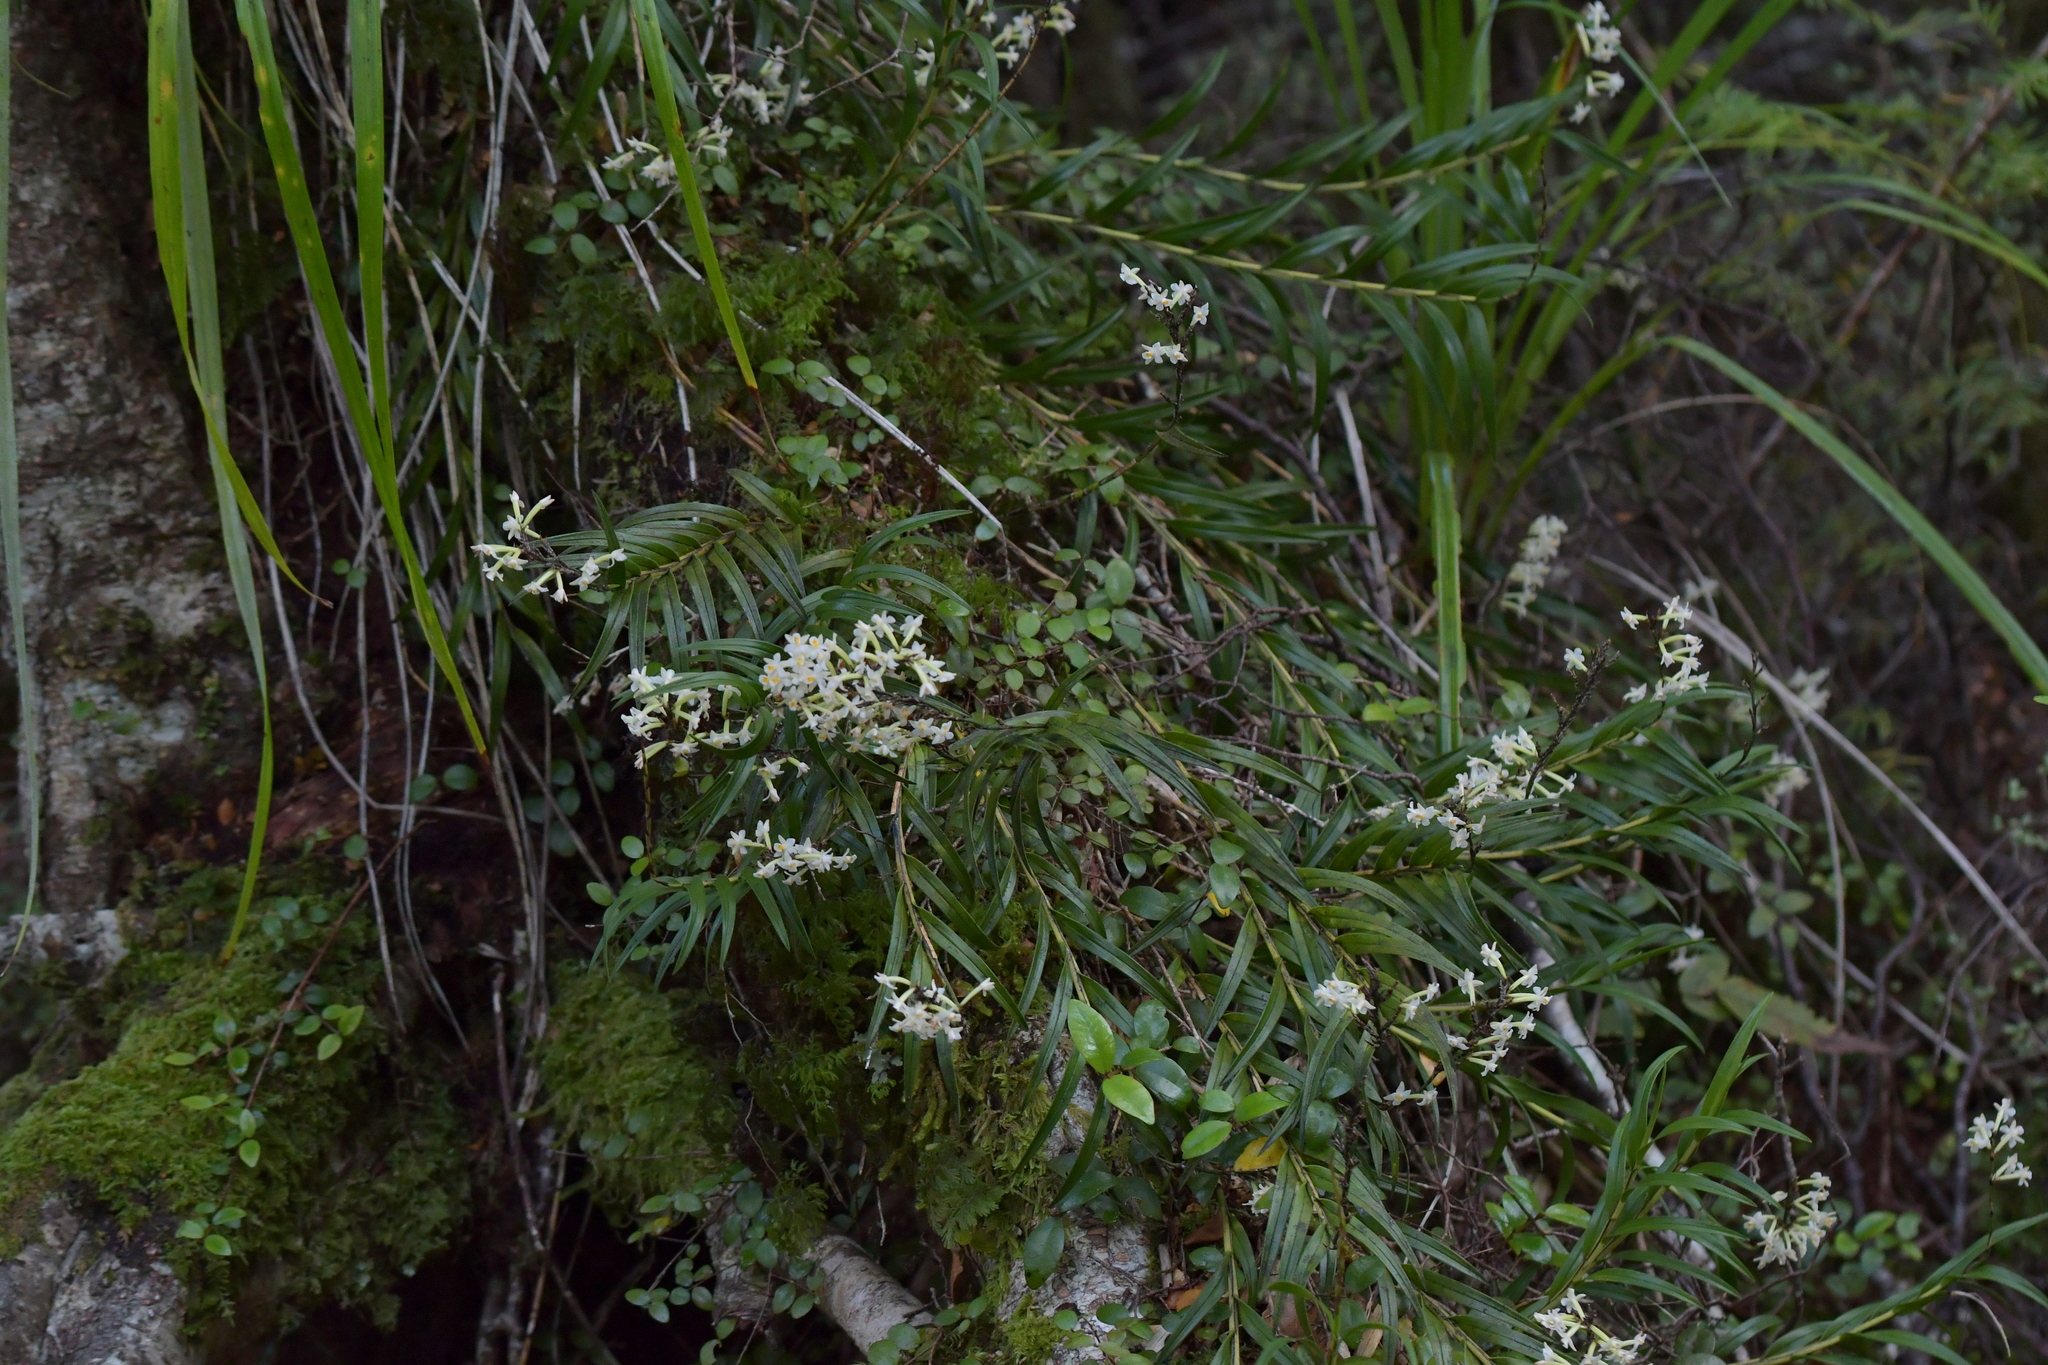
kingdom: Plantae
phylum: Tracheophyta
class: Liliopsida
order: Asparagales
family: Orchidaceae
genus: Earina
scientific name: Earina autumnalis
